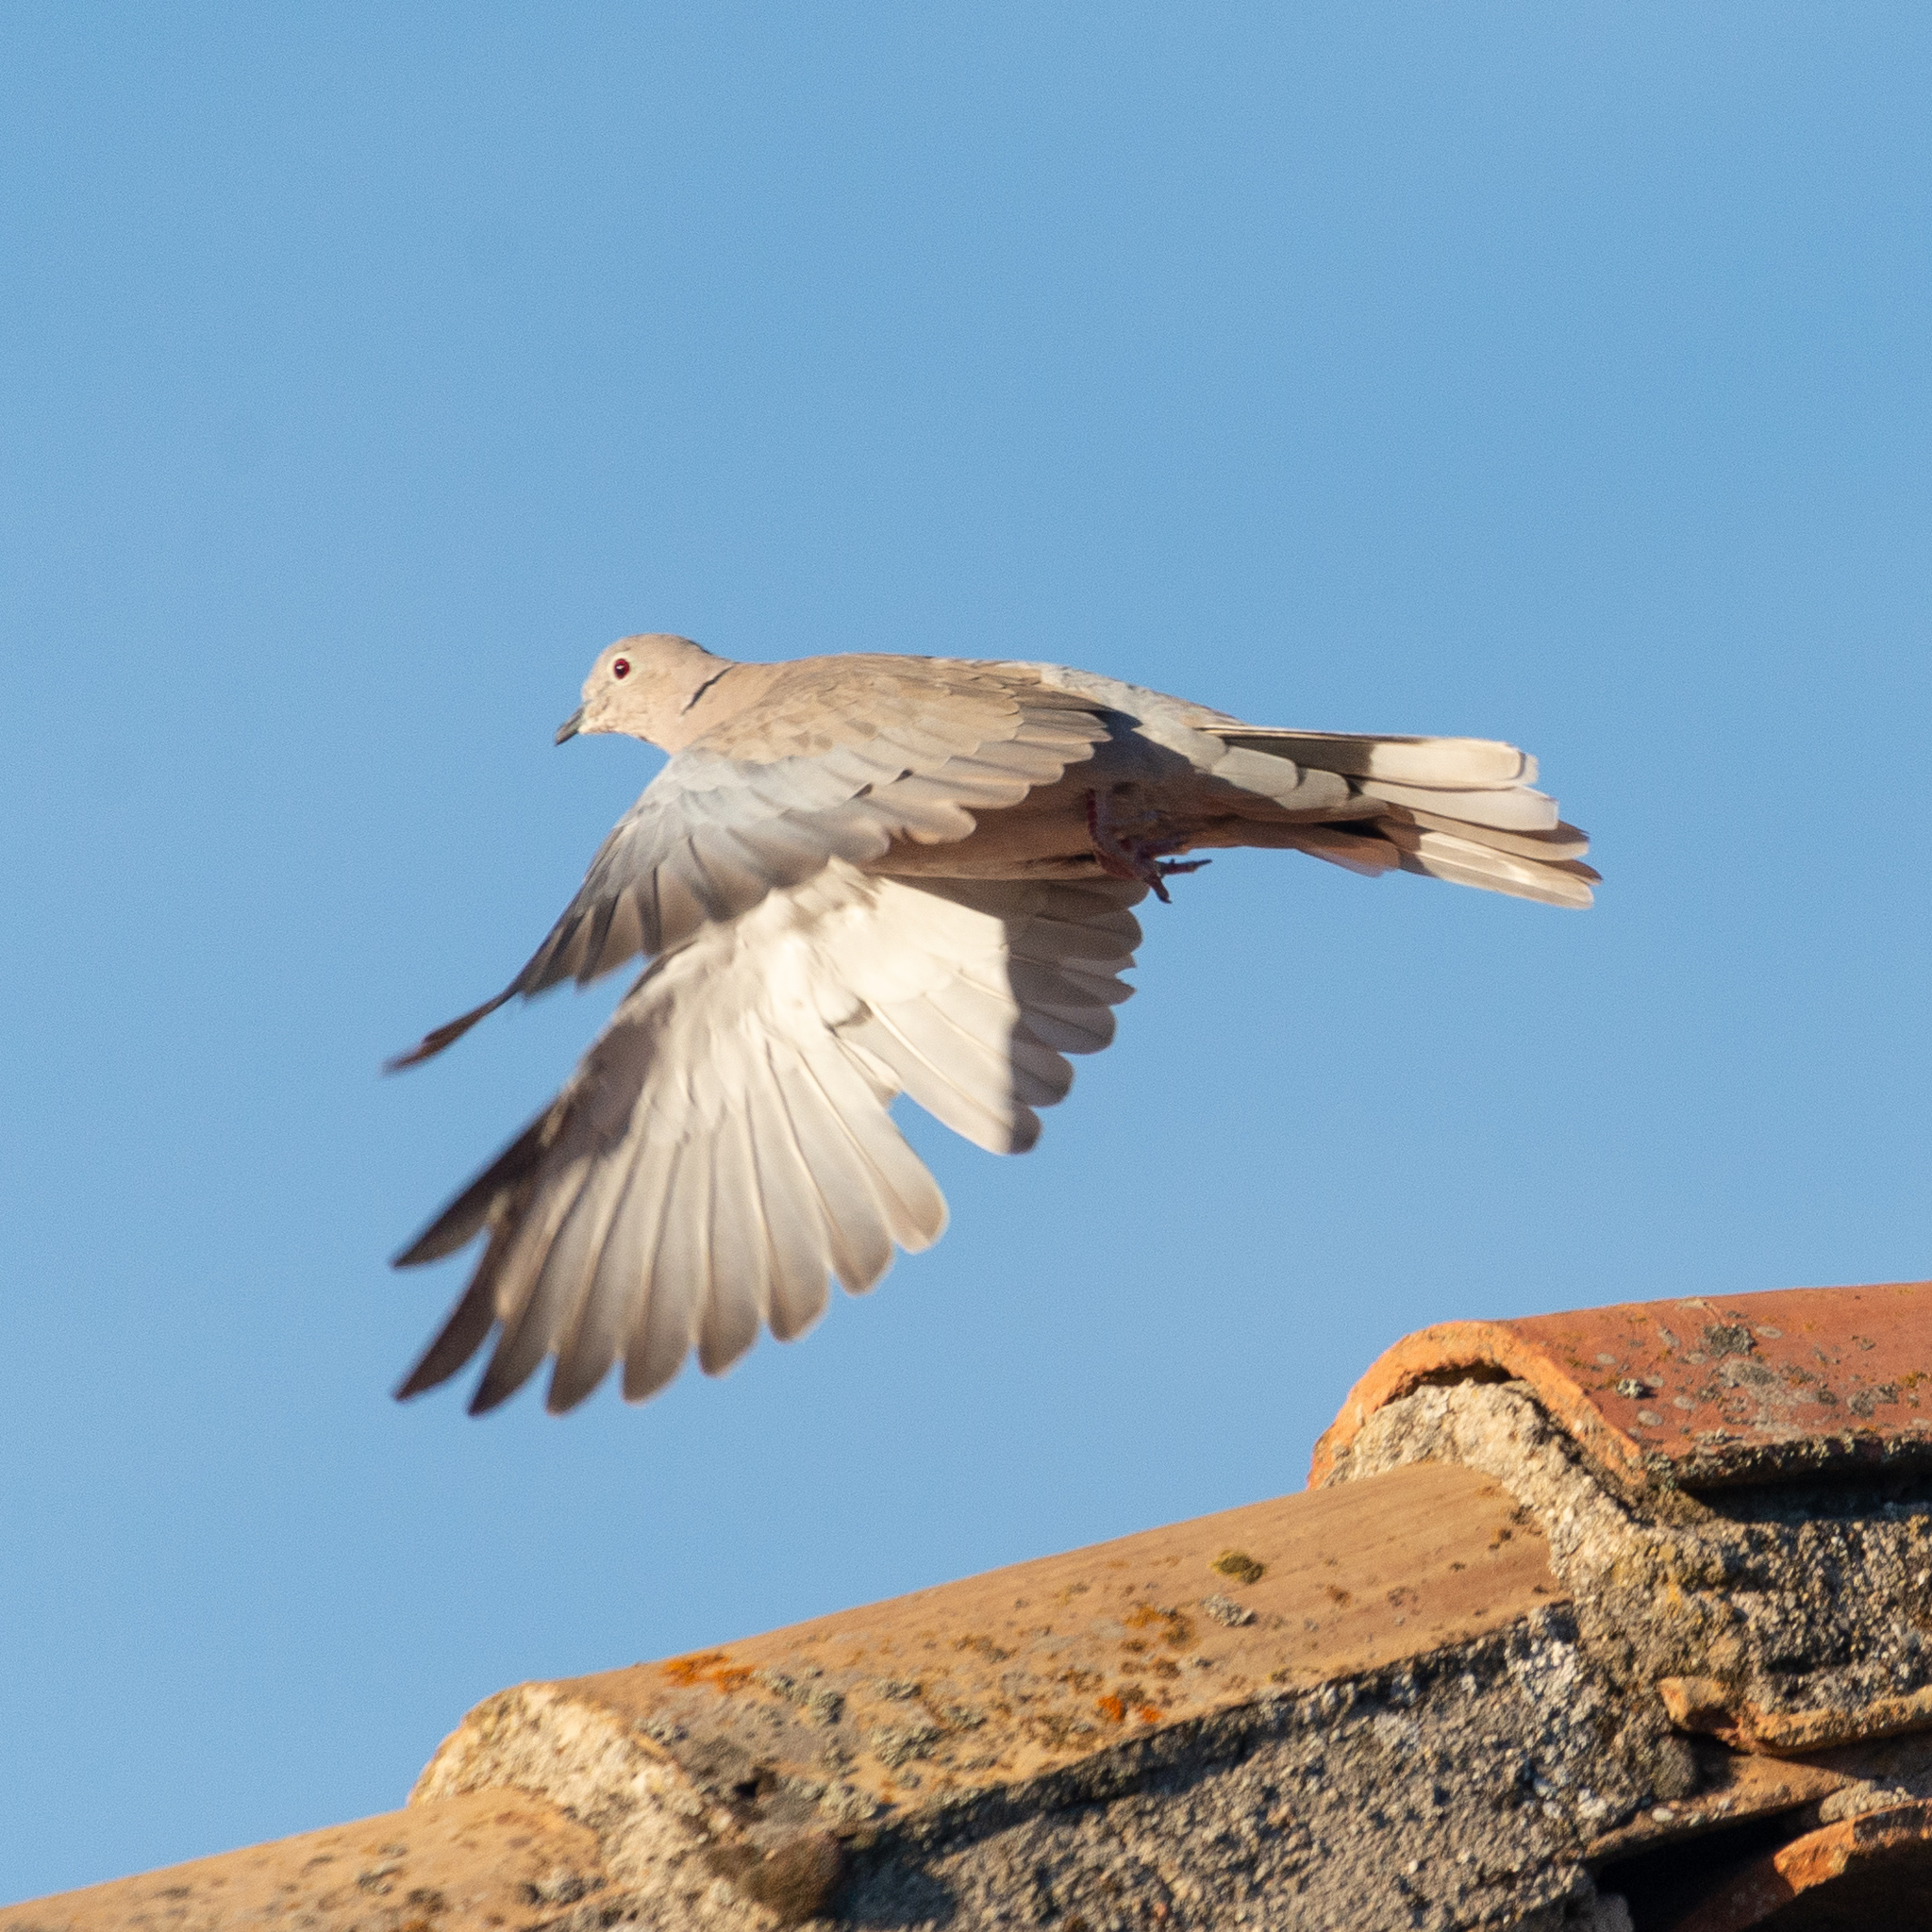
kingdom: Animalia
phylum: Chordata
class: Aves
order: Columbiformes
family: Columbidae
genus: Streptopelia
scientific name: Streptopelia decaocto
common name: Eurasian collared dove
